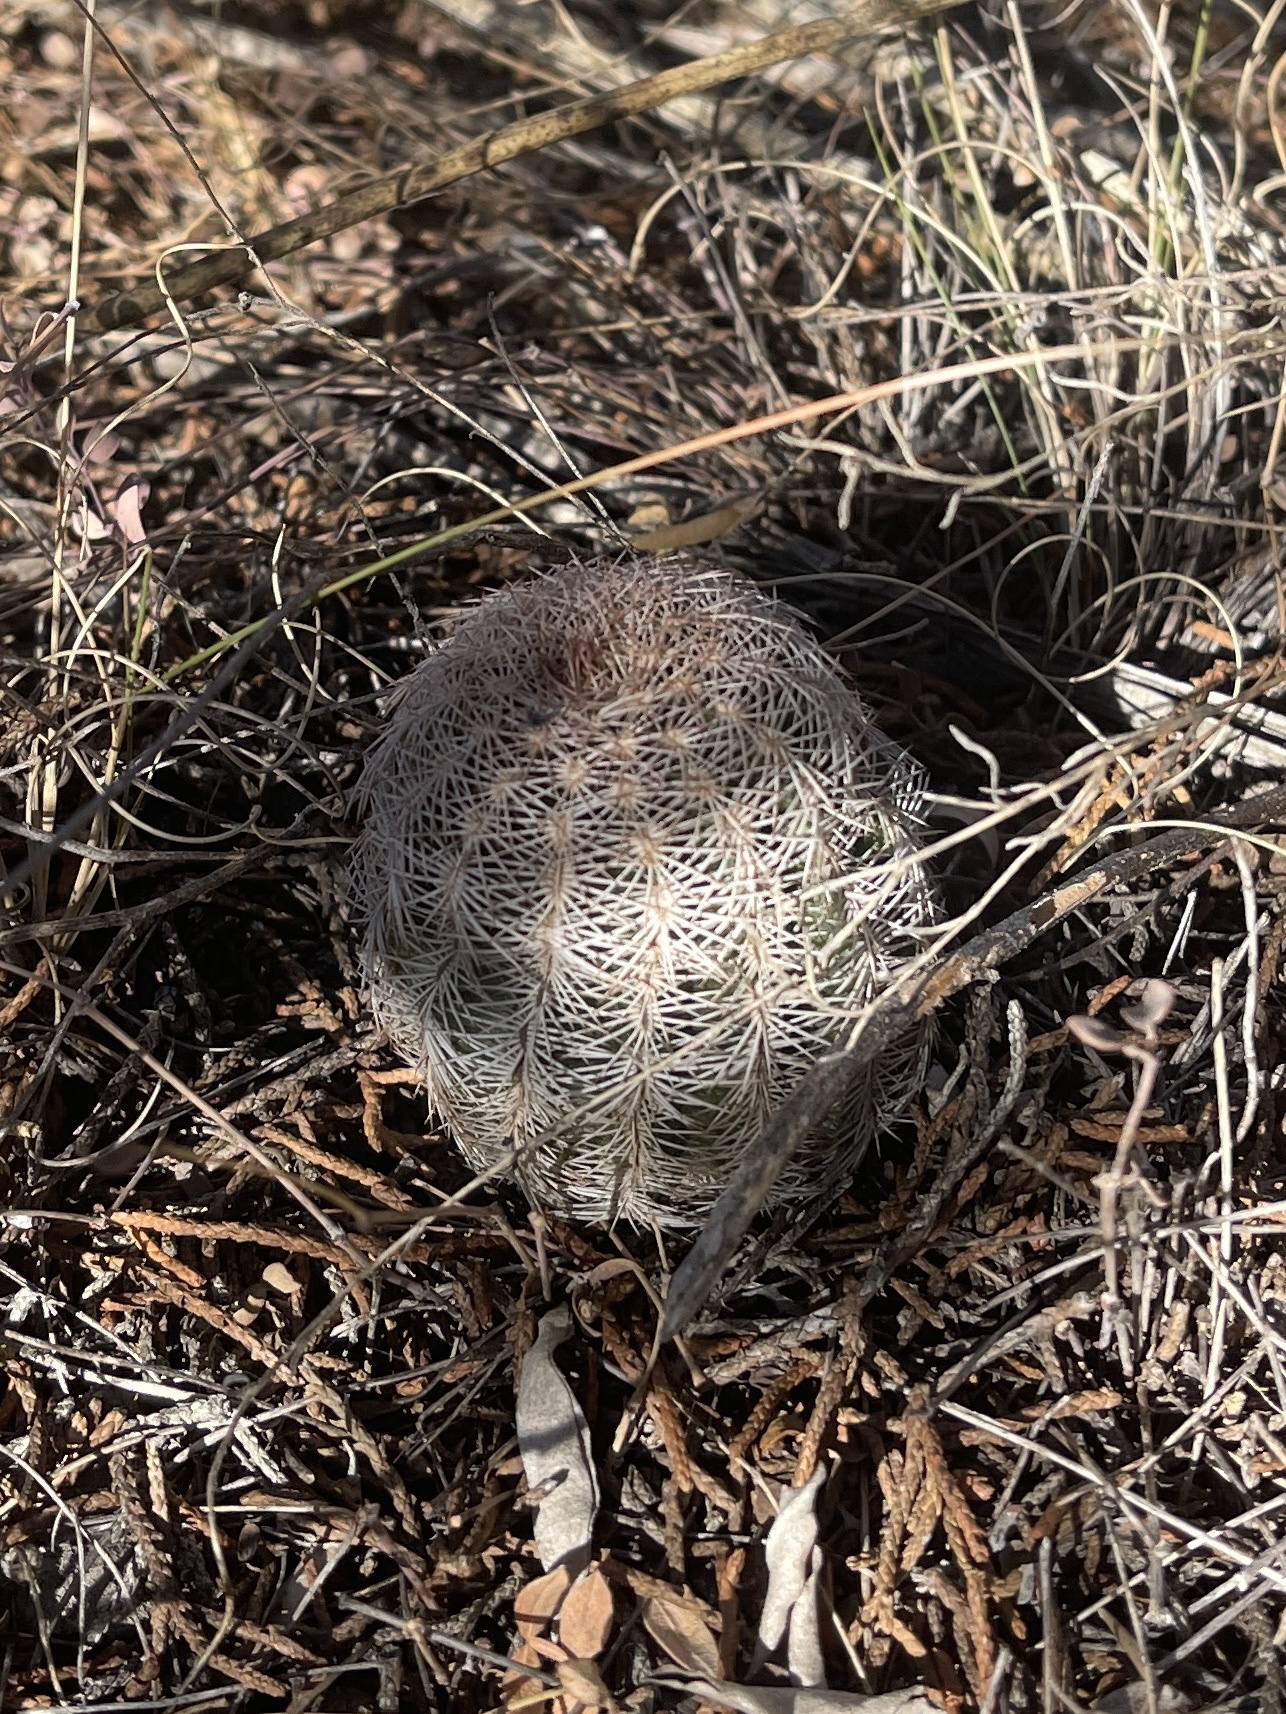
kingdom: Plantae
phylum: Tracheophyta
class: Magnoliopsida
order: Caryophyllales
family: Cactaceae
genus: Echinocereus
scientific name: Echinocereus reichenbachii
